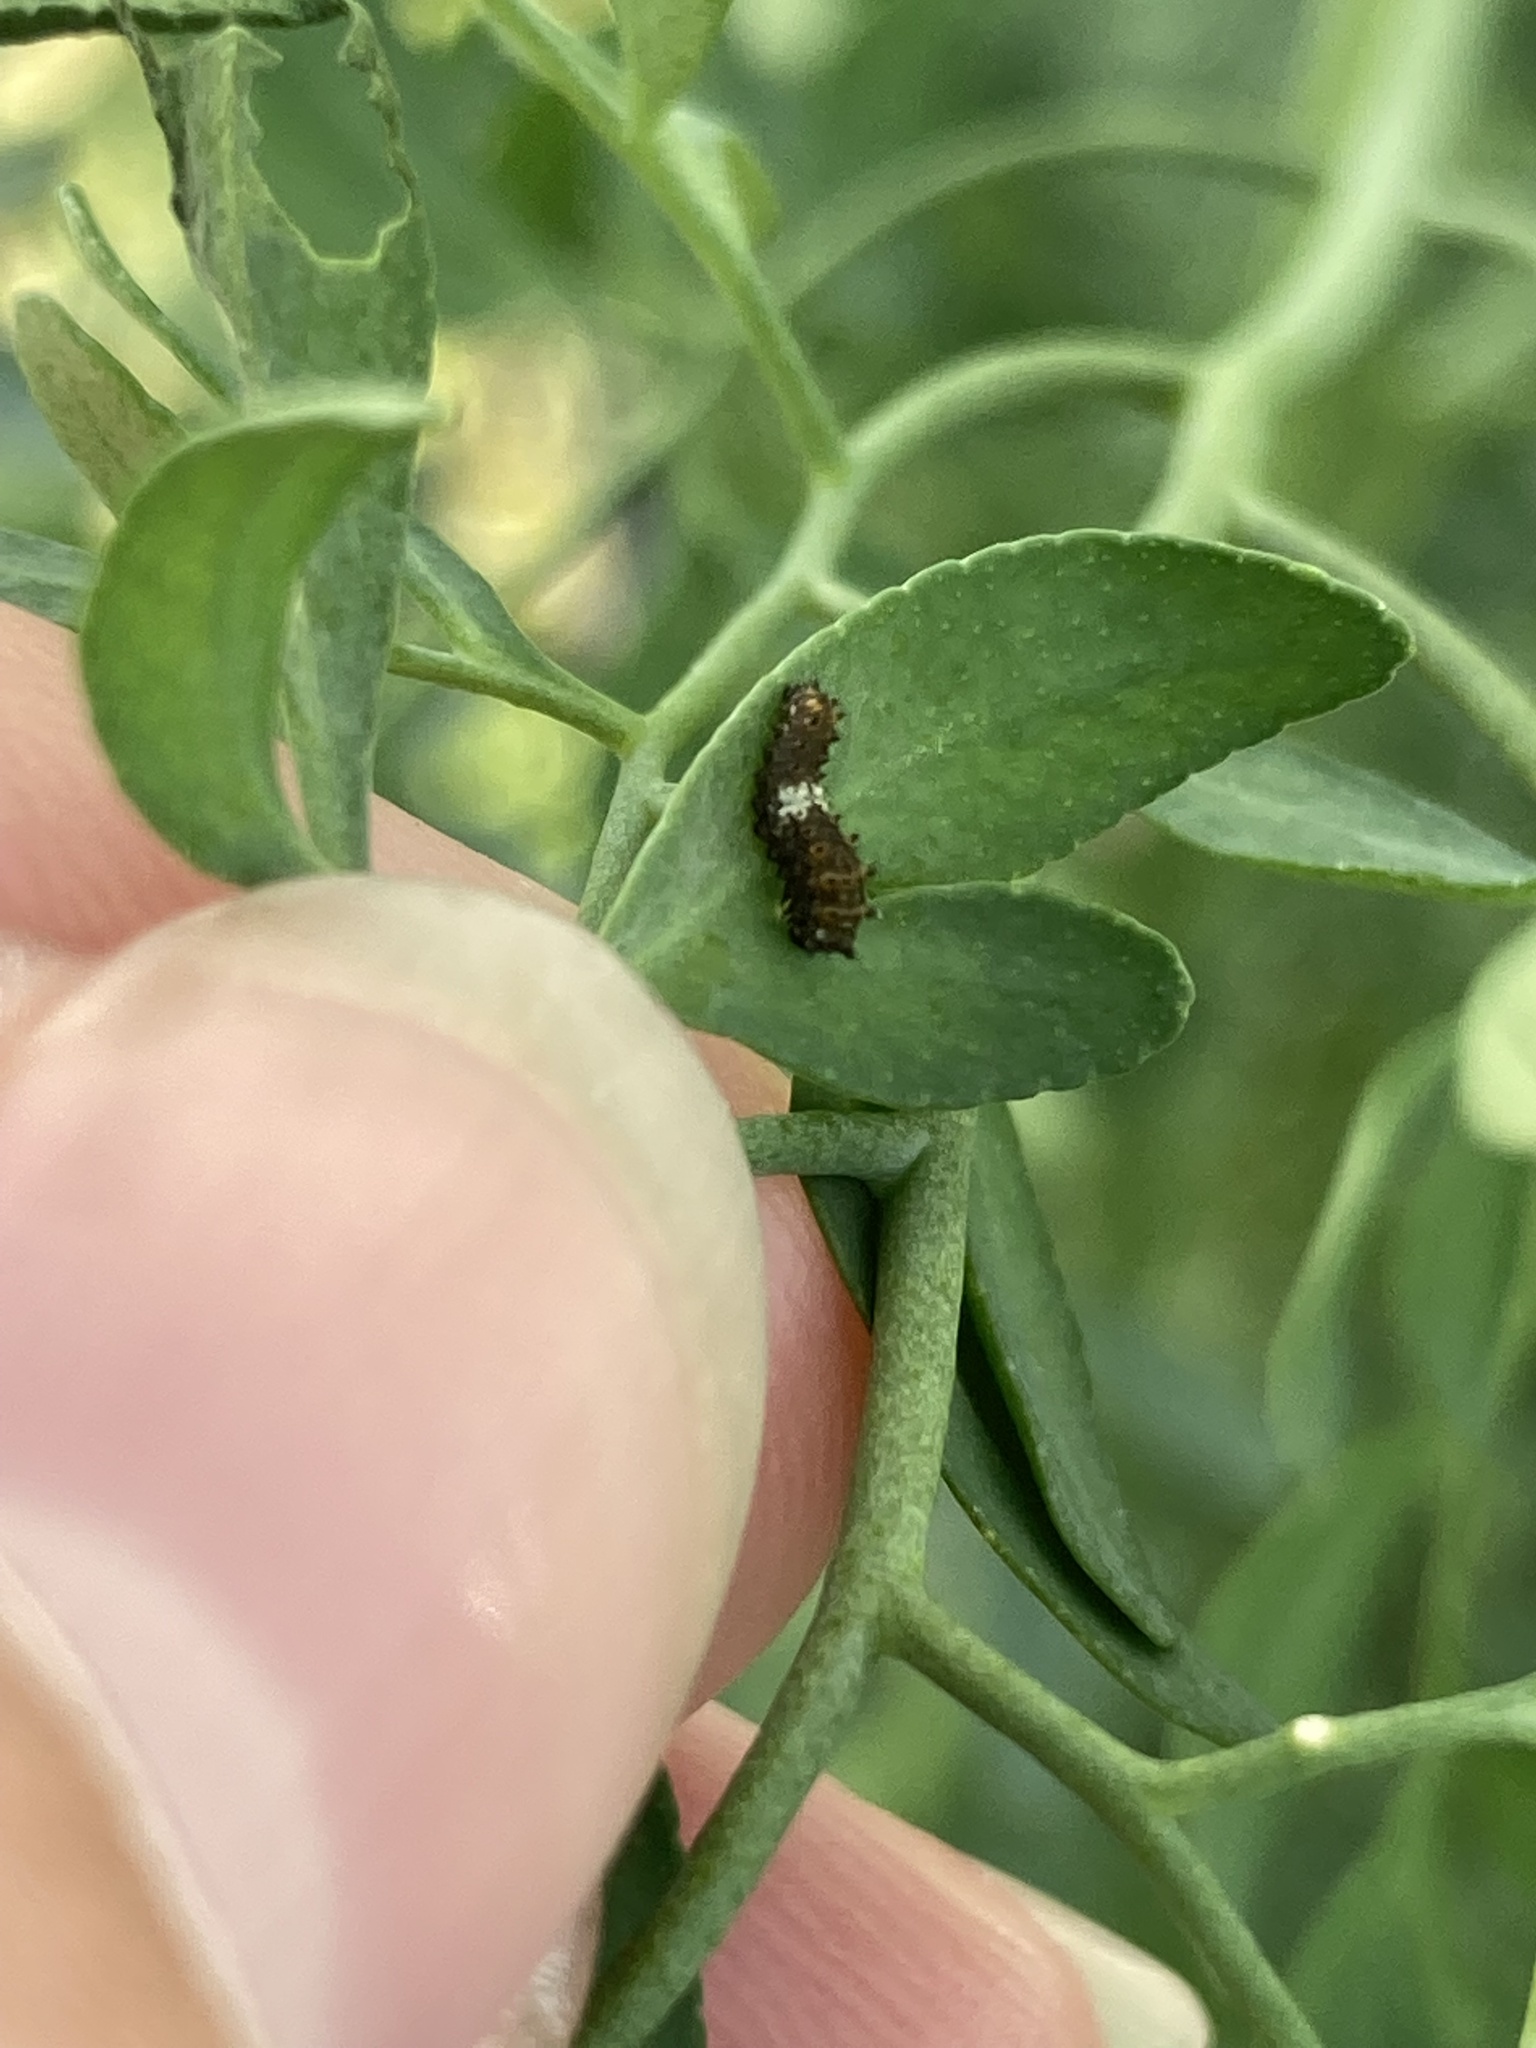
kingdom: Animalia
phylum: Arthropoda
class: Insecta
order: Lepidoptera
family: Papilionidae
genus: Papilio
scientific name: Papilio polyxenes
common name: Black swallowtail
